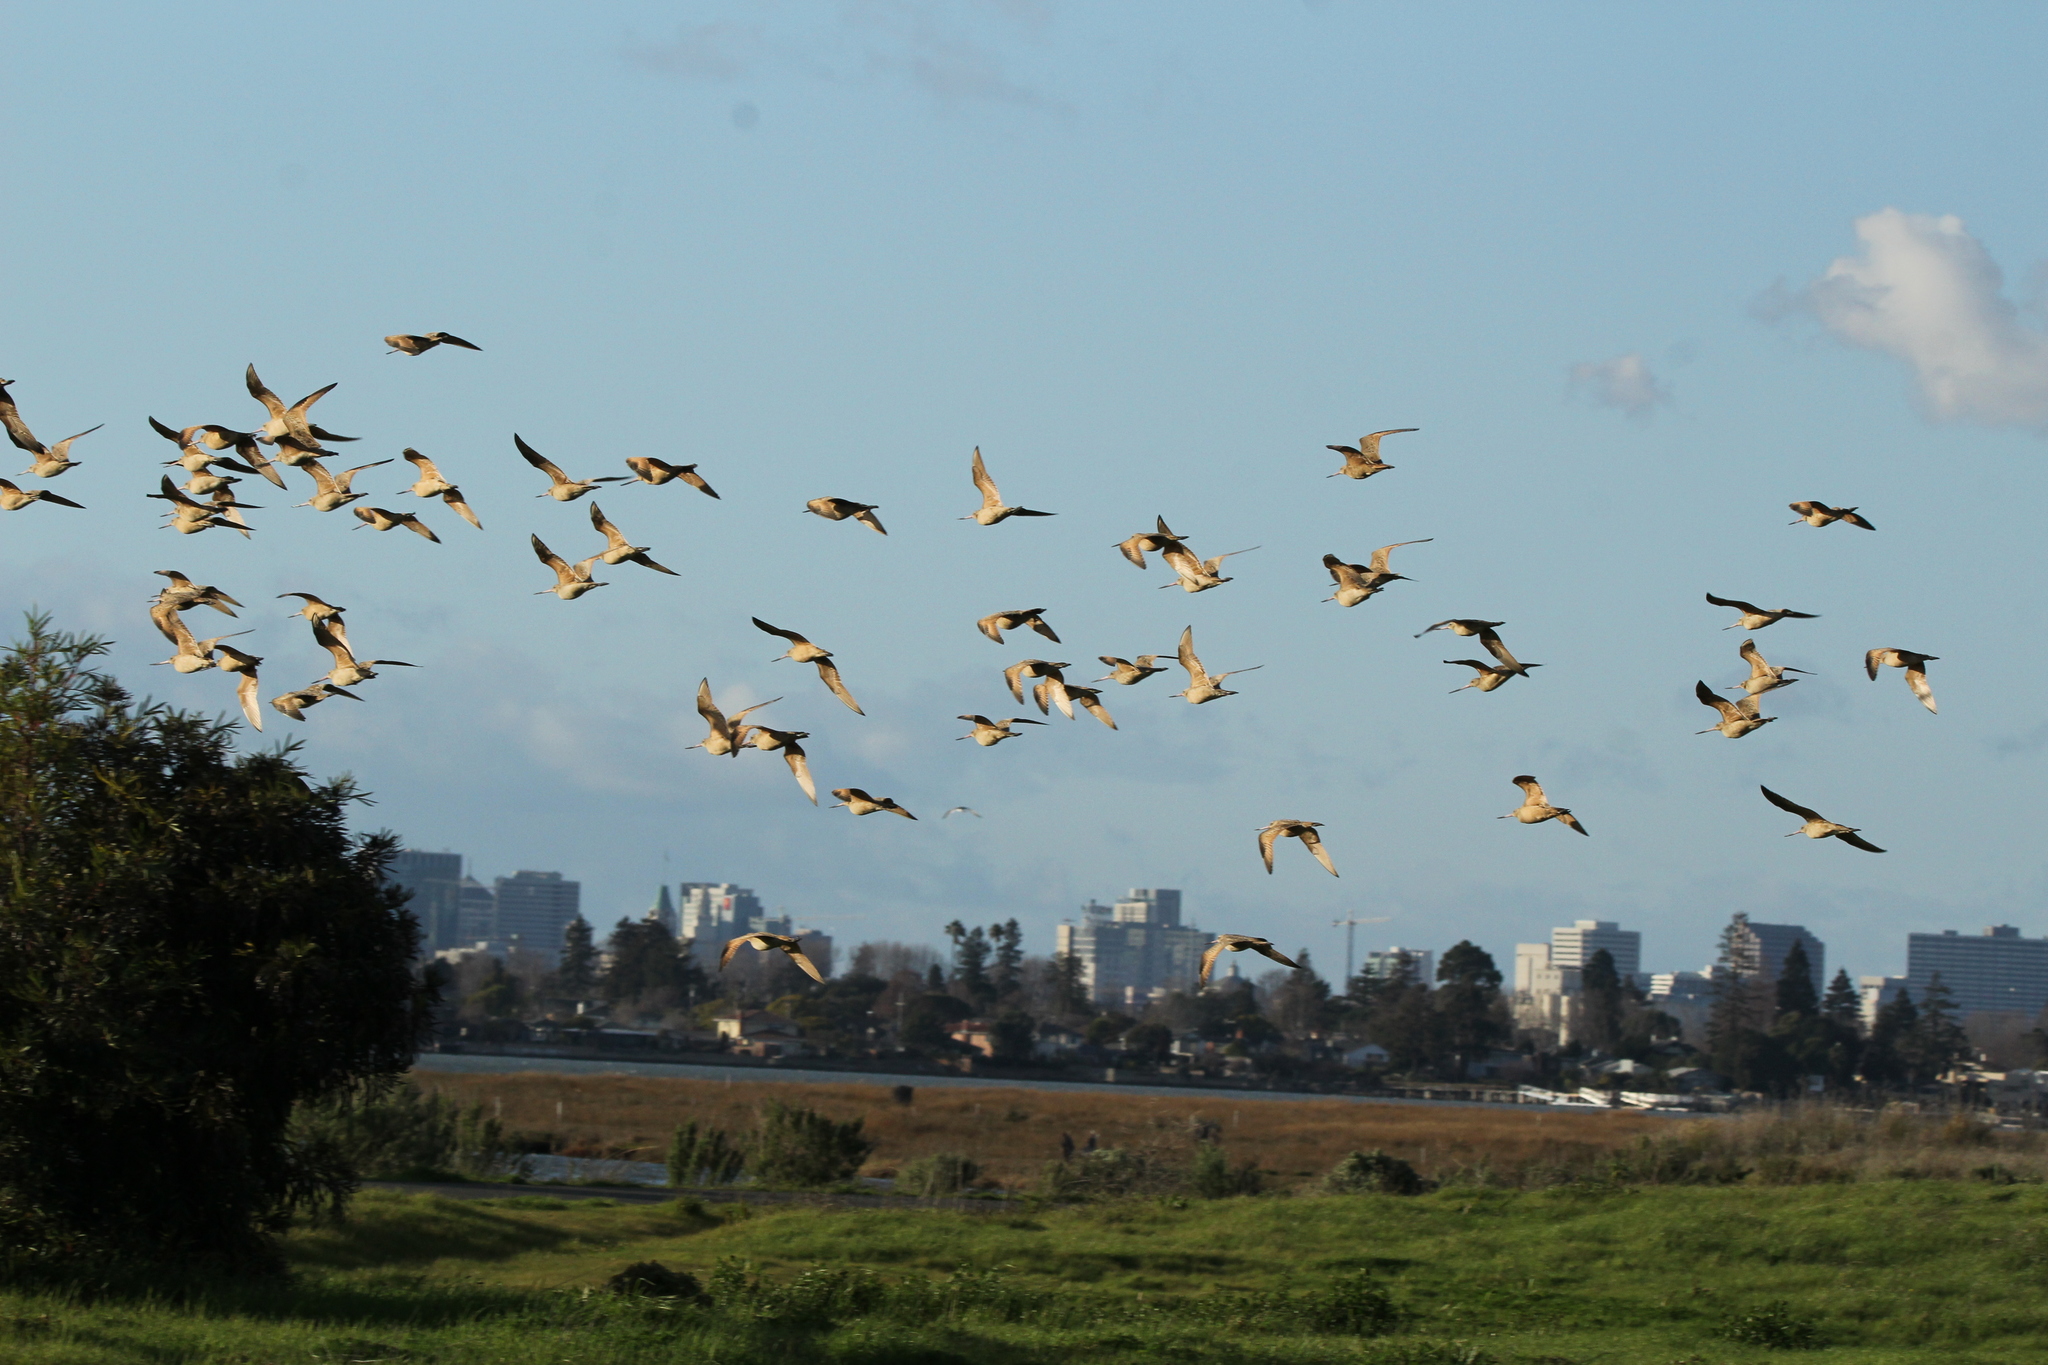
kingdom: Animalia
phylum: Chordata
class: Aves
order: Charadriiformes
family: Scolopacidae
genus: Limosa
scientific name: Limosa fedoa
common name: Marbled godwit
